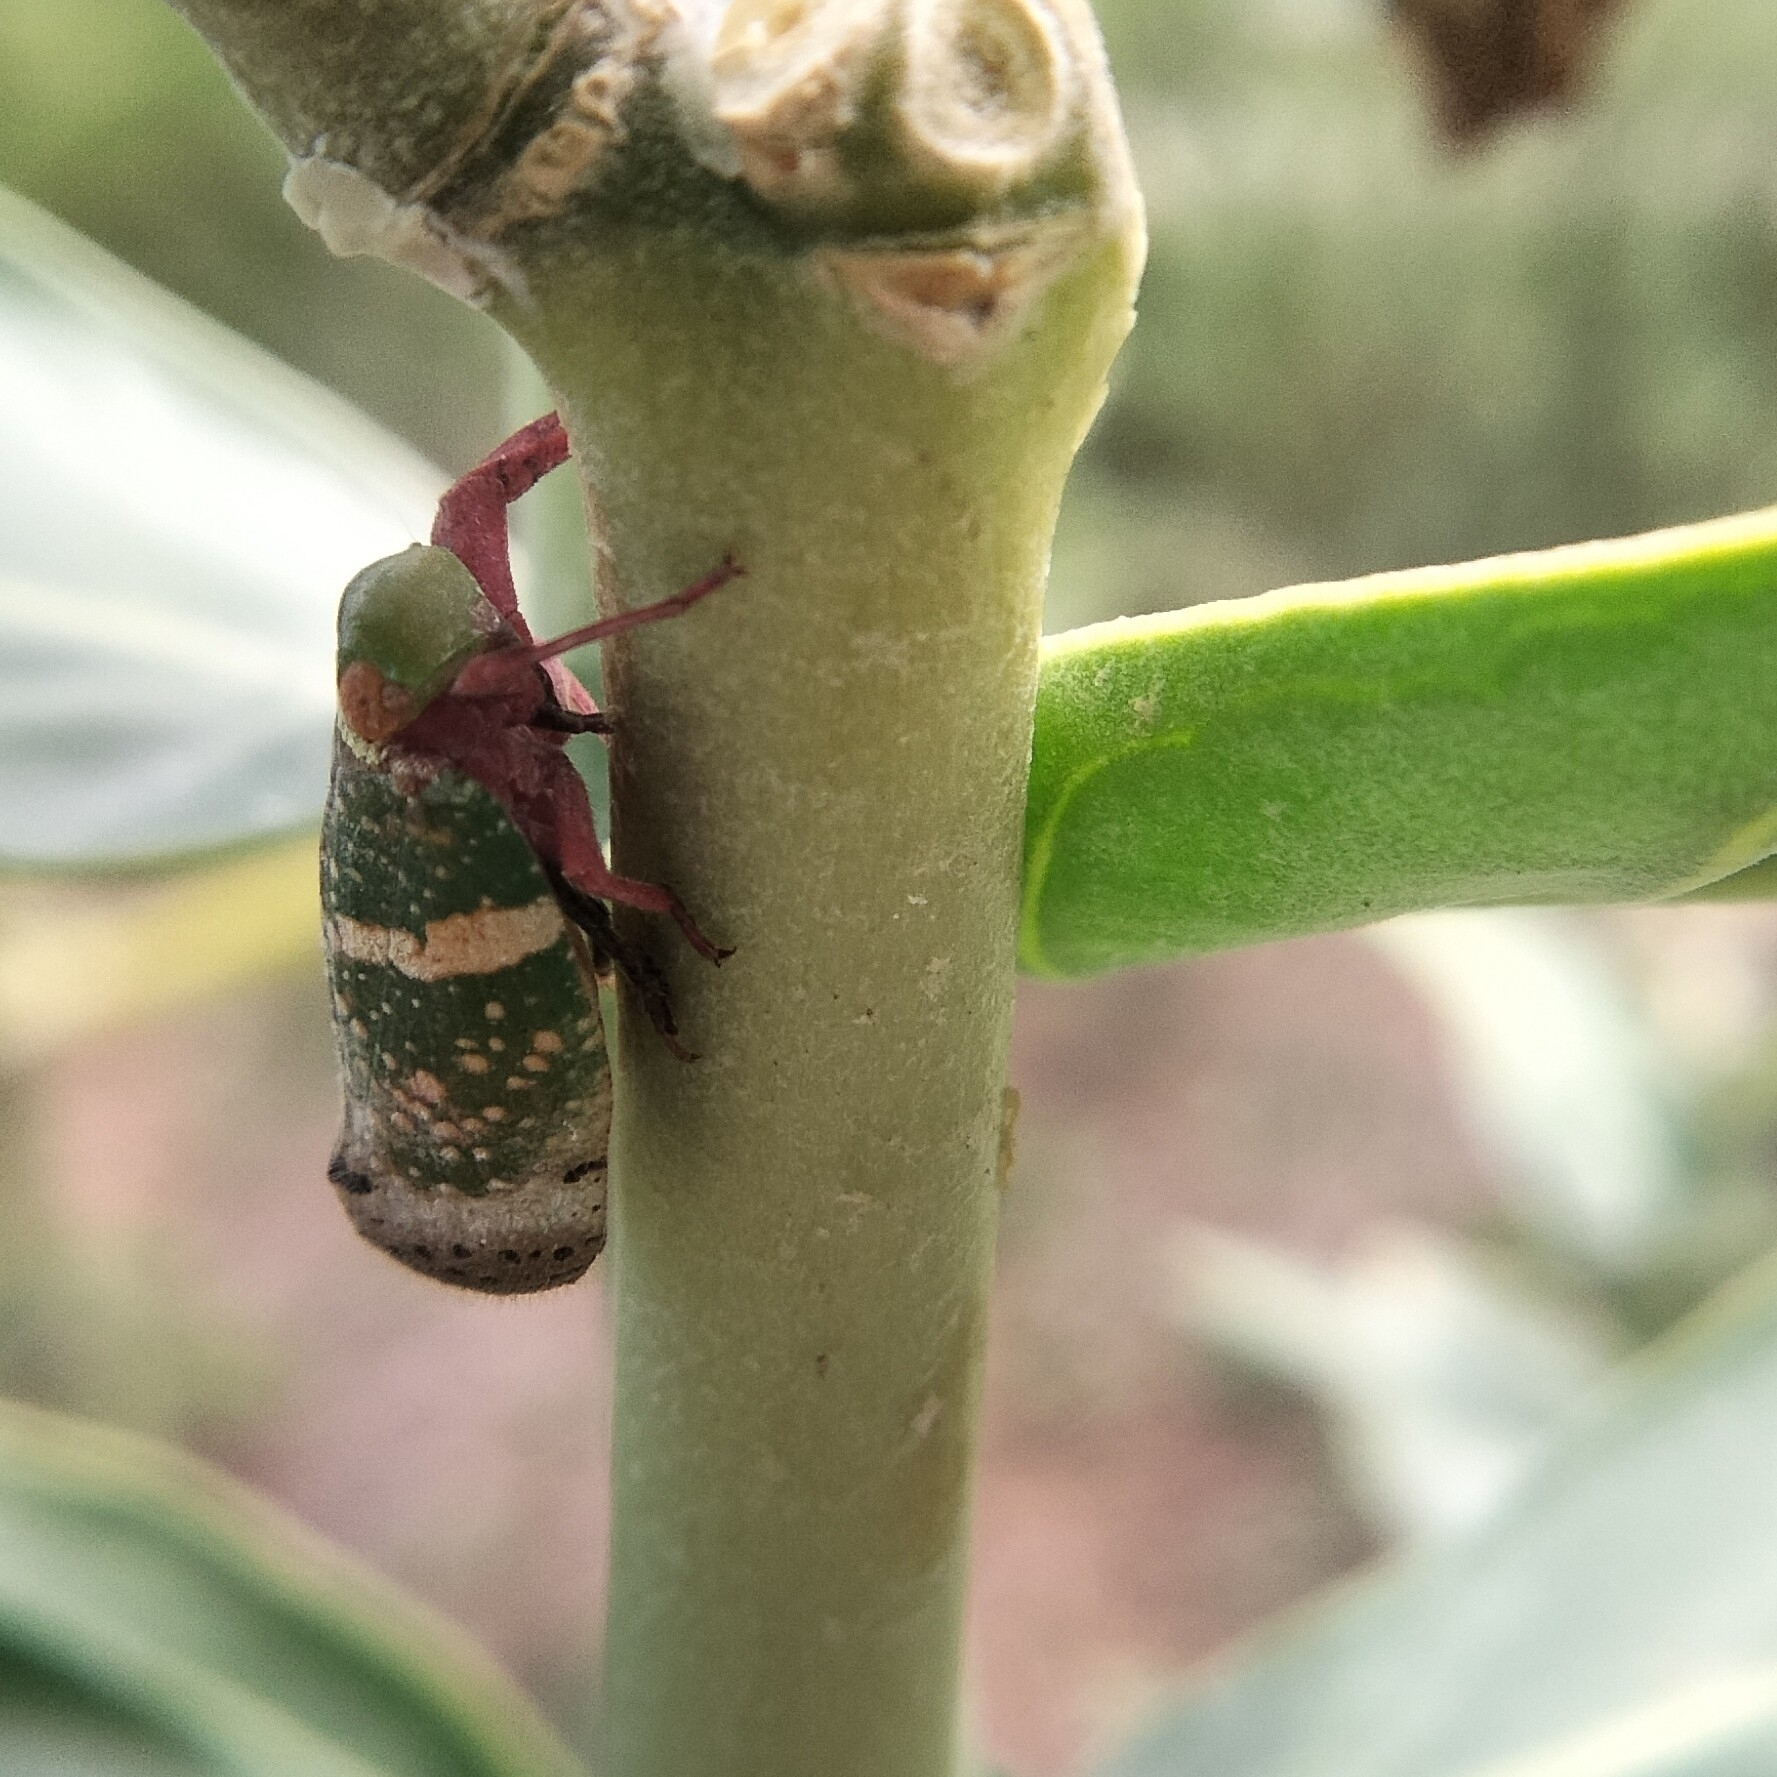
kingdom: Animalia
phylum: Arthropoda
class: Insecta
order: Hemiptera
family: Eurybrachidae
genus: Eurybrachys
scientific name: Eurybrachys tomentosa
